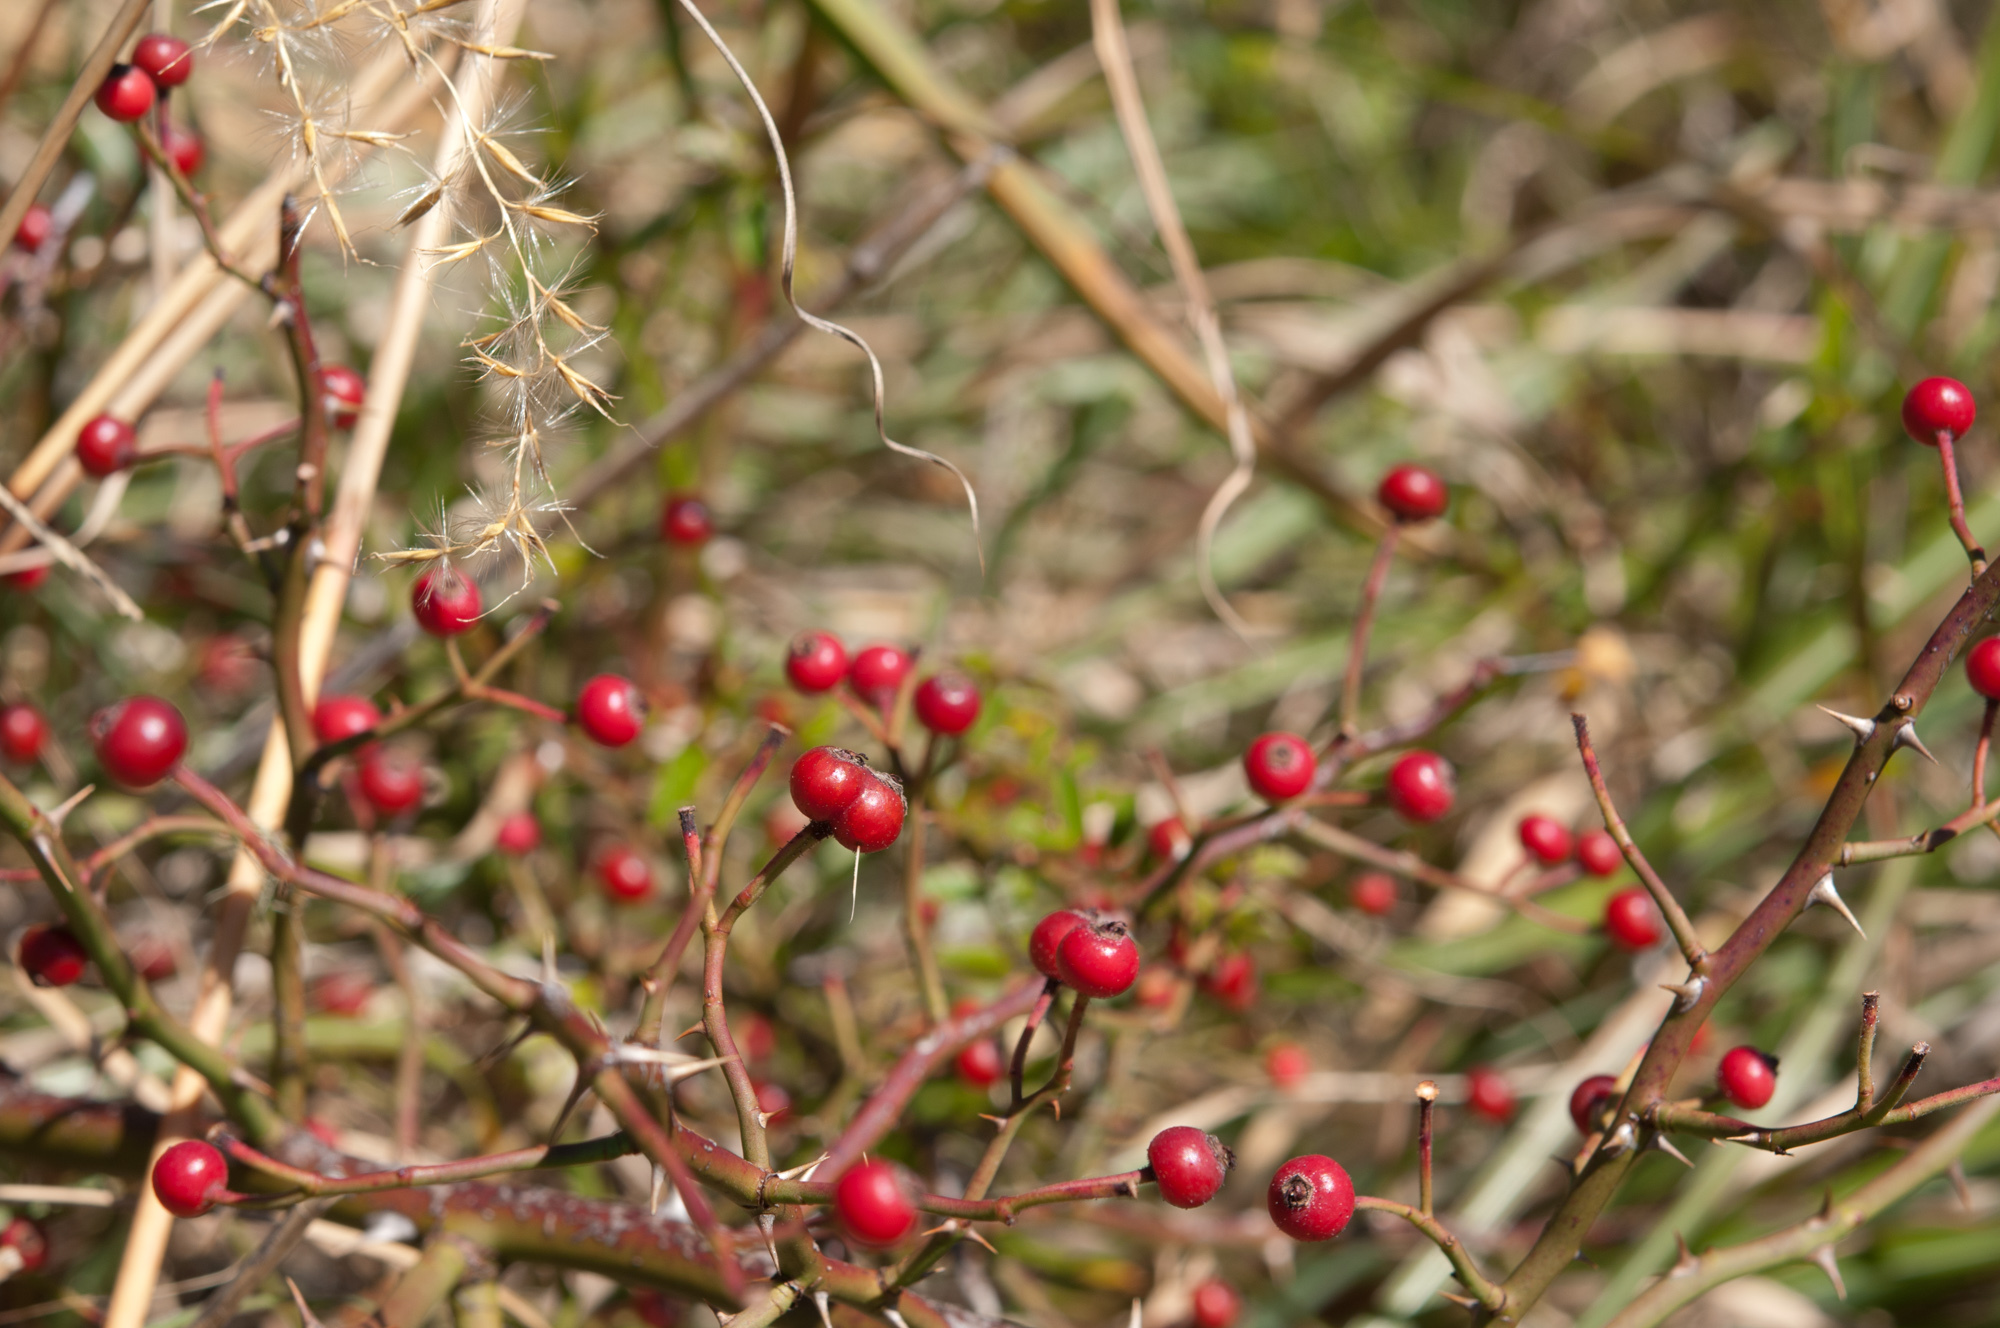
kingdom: Plantae
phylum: Tracheophyta
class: Magnoliopsida
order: Rosales
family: Rosaceae
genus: Rosa
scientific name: Rosa transmorrisonensis
